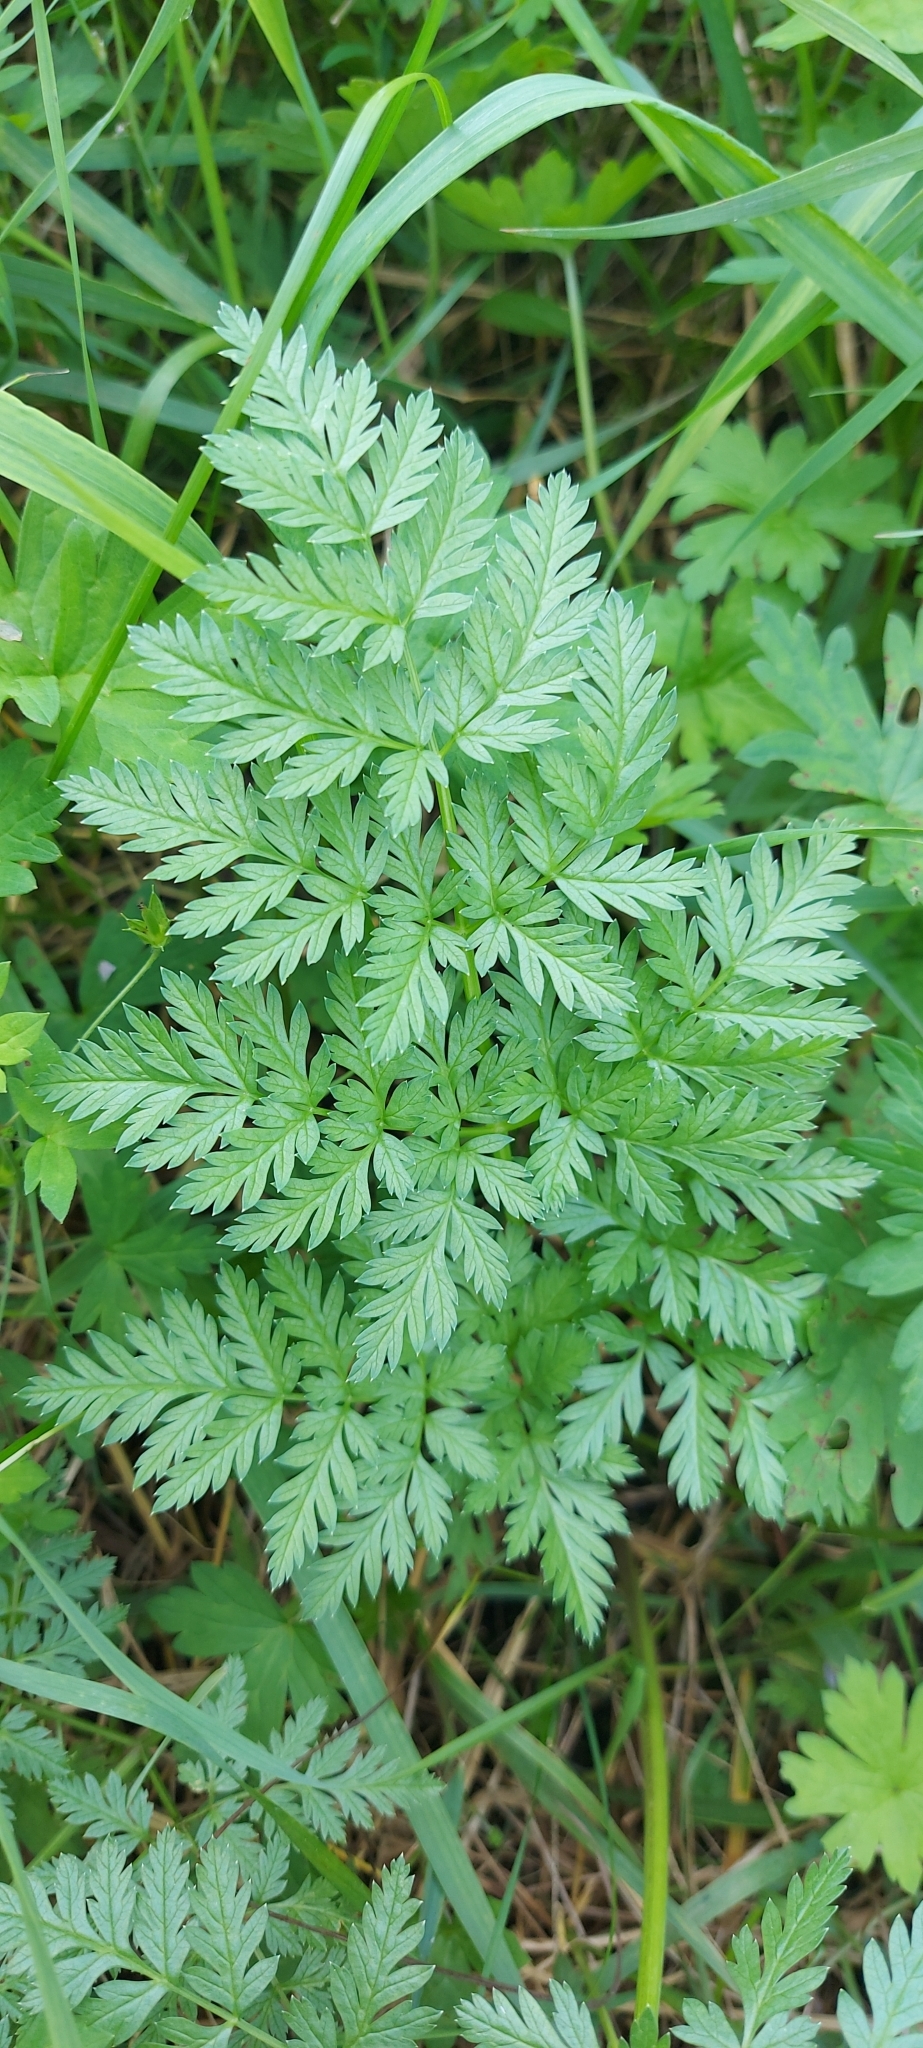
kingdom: Plantae
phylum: Tracheophyta
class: Magnoliopsida
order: Apiales
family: Apiaceae
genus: Anthriscus
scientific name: Anthriscus sylvestris
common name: Cow parsley
